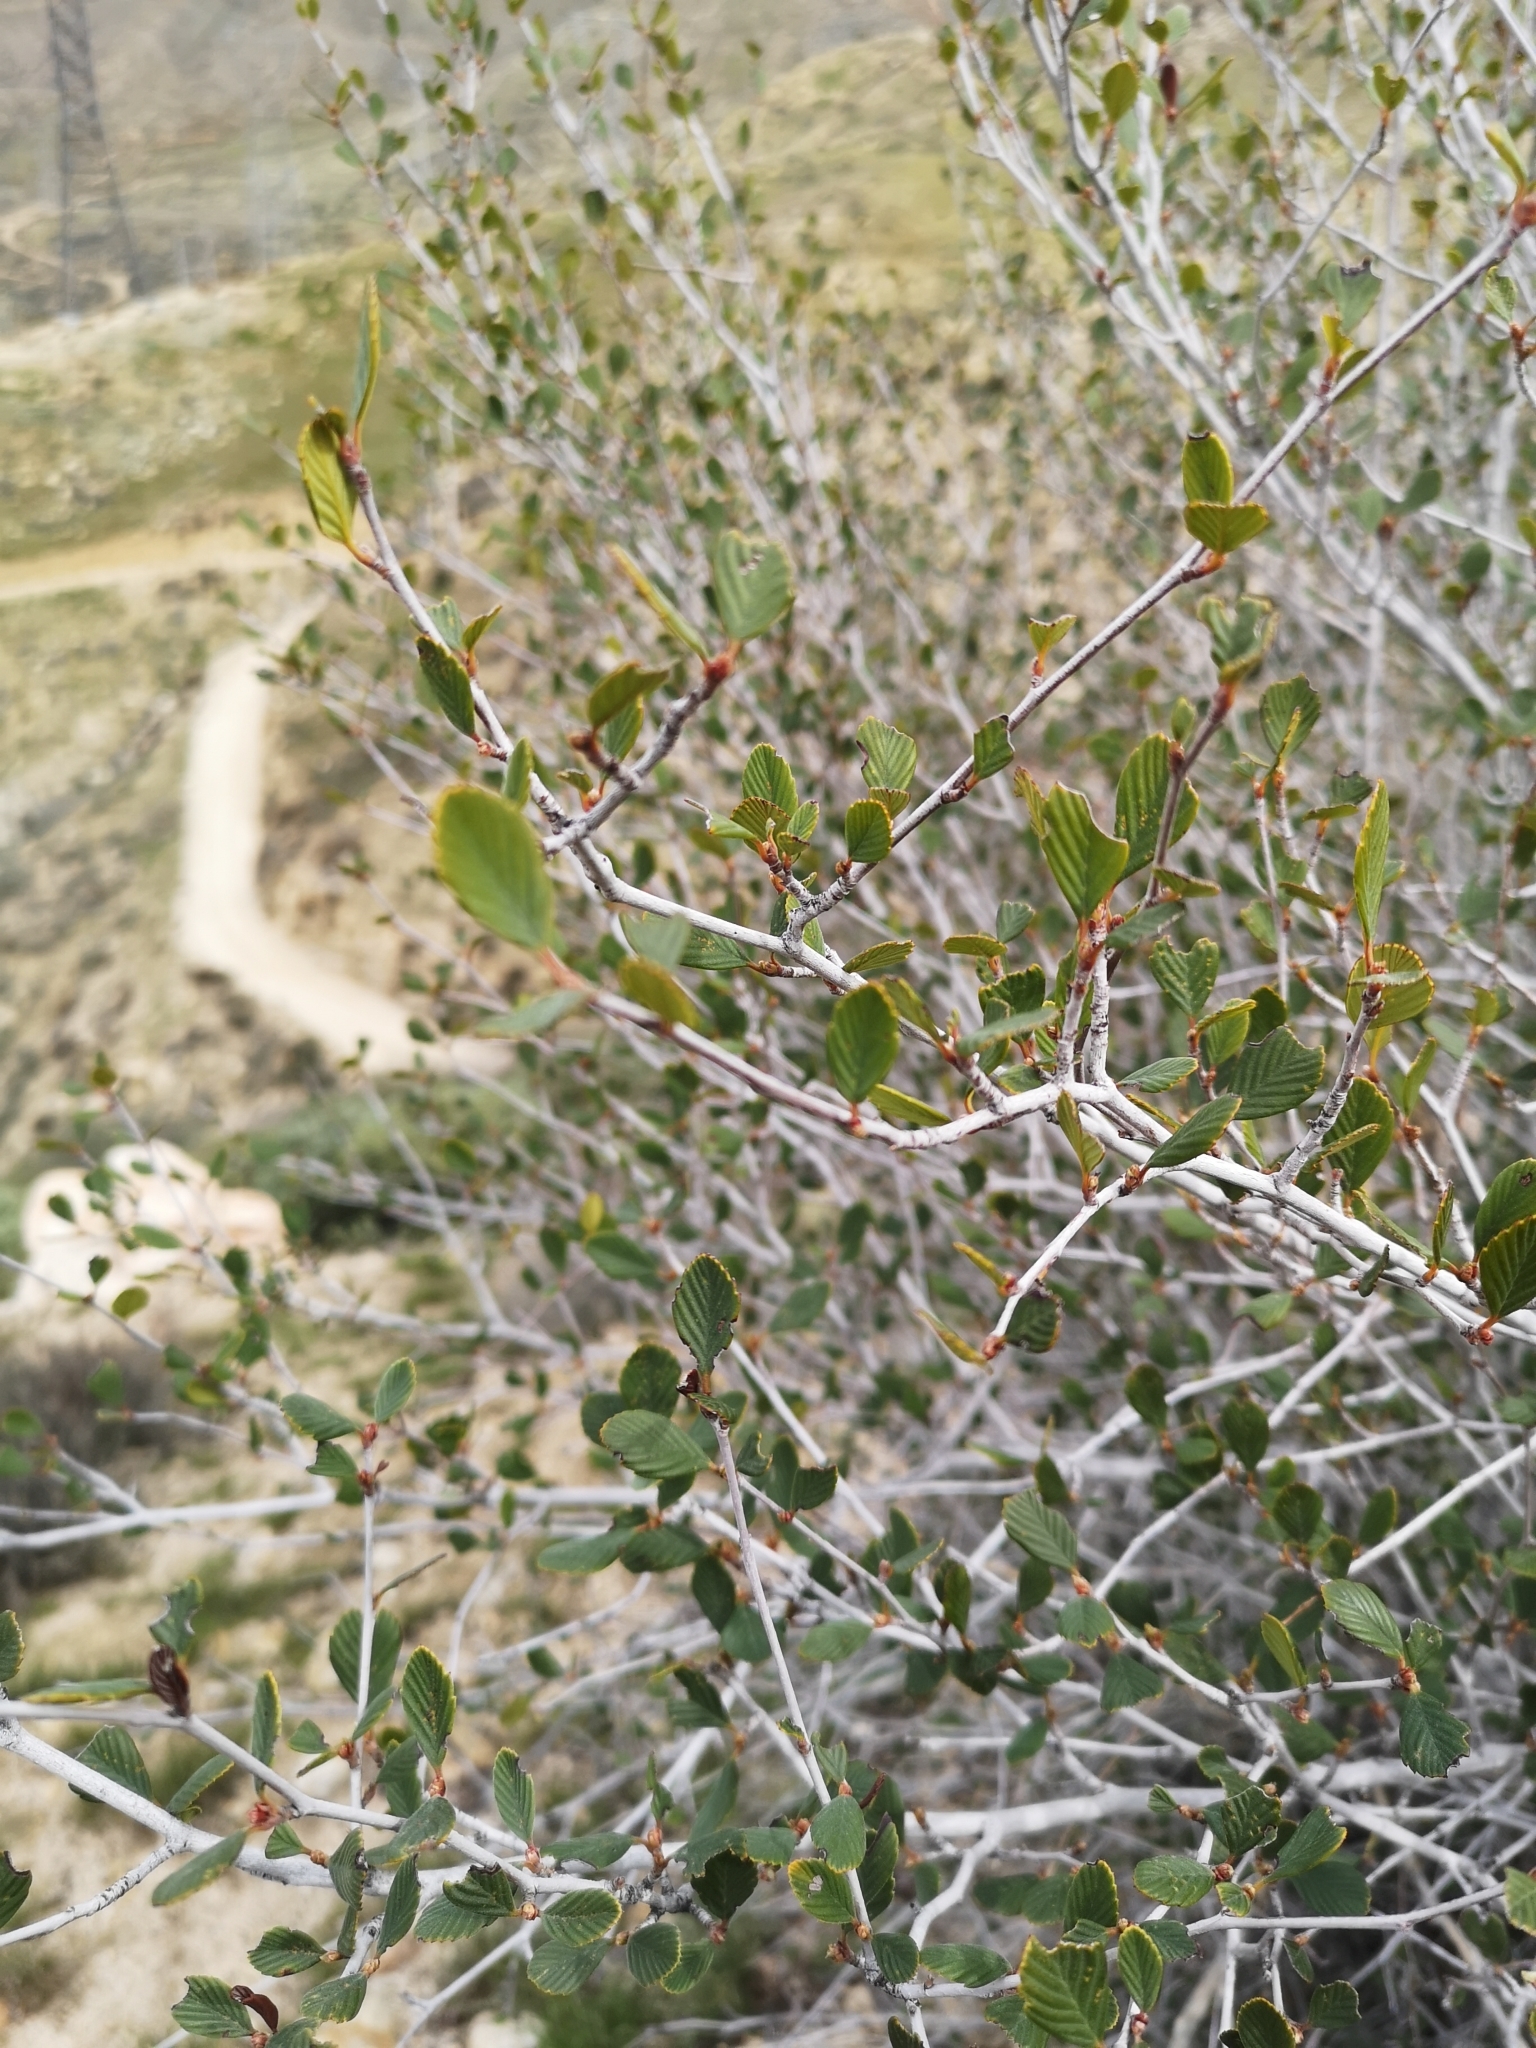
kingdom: Plantae
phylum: Tracheophyta
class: Magnoliopsida
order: Rosales
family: Rosaceae
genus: Cercocarpus
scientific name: Cercocarpus betuloides
